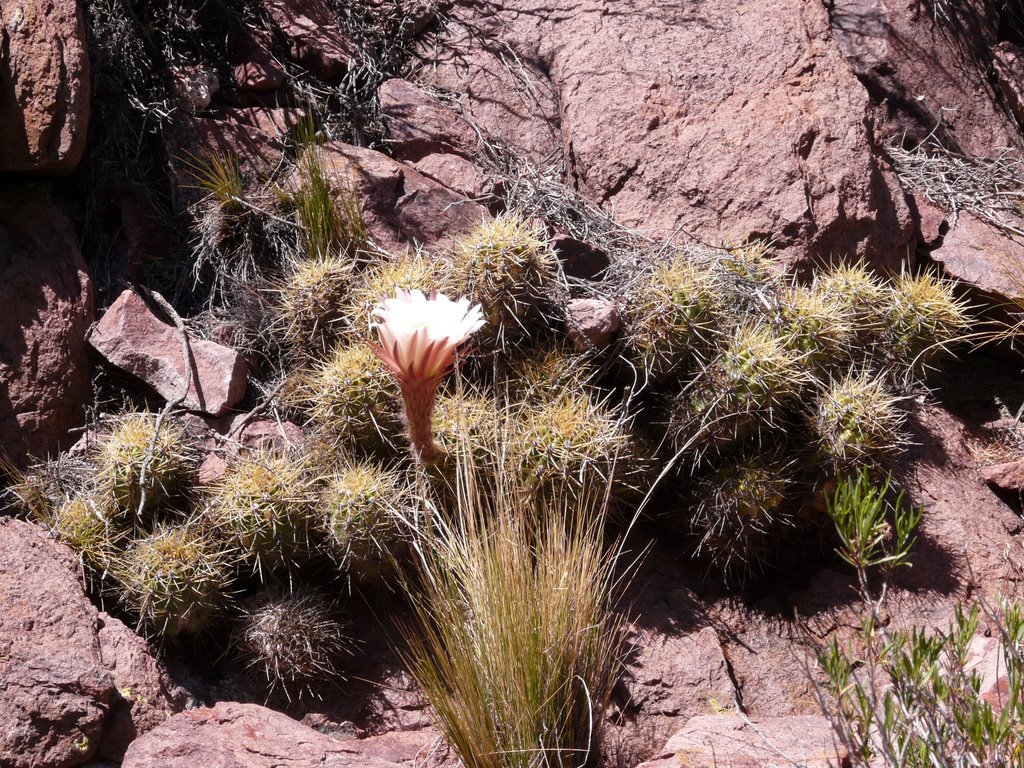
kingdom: Plantae
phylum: Tracheophyta
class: Magnoliopsida
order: Caryophyllales
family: Cactaceae
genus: Soehrensia
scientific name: Soehrensia candicans
